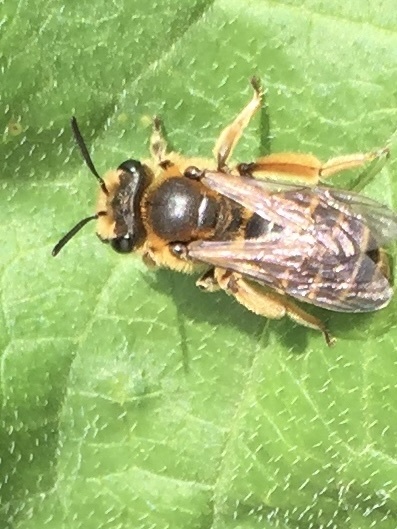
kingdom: Animalia
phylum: Arthropoda
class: Insecta
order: Hymenoptera
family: Andrenidae
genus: Andrena
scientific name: Andrena wilkella
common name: Wilke's mining bee
